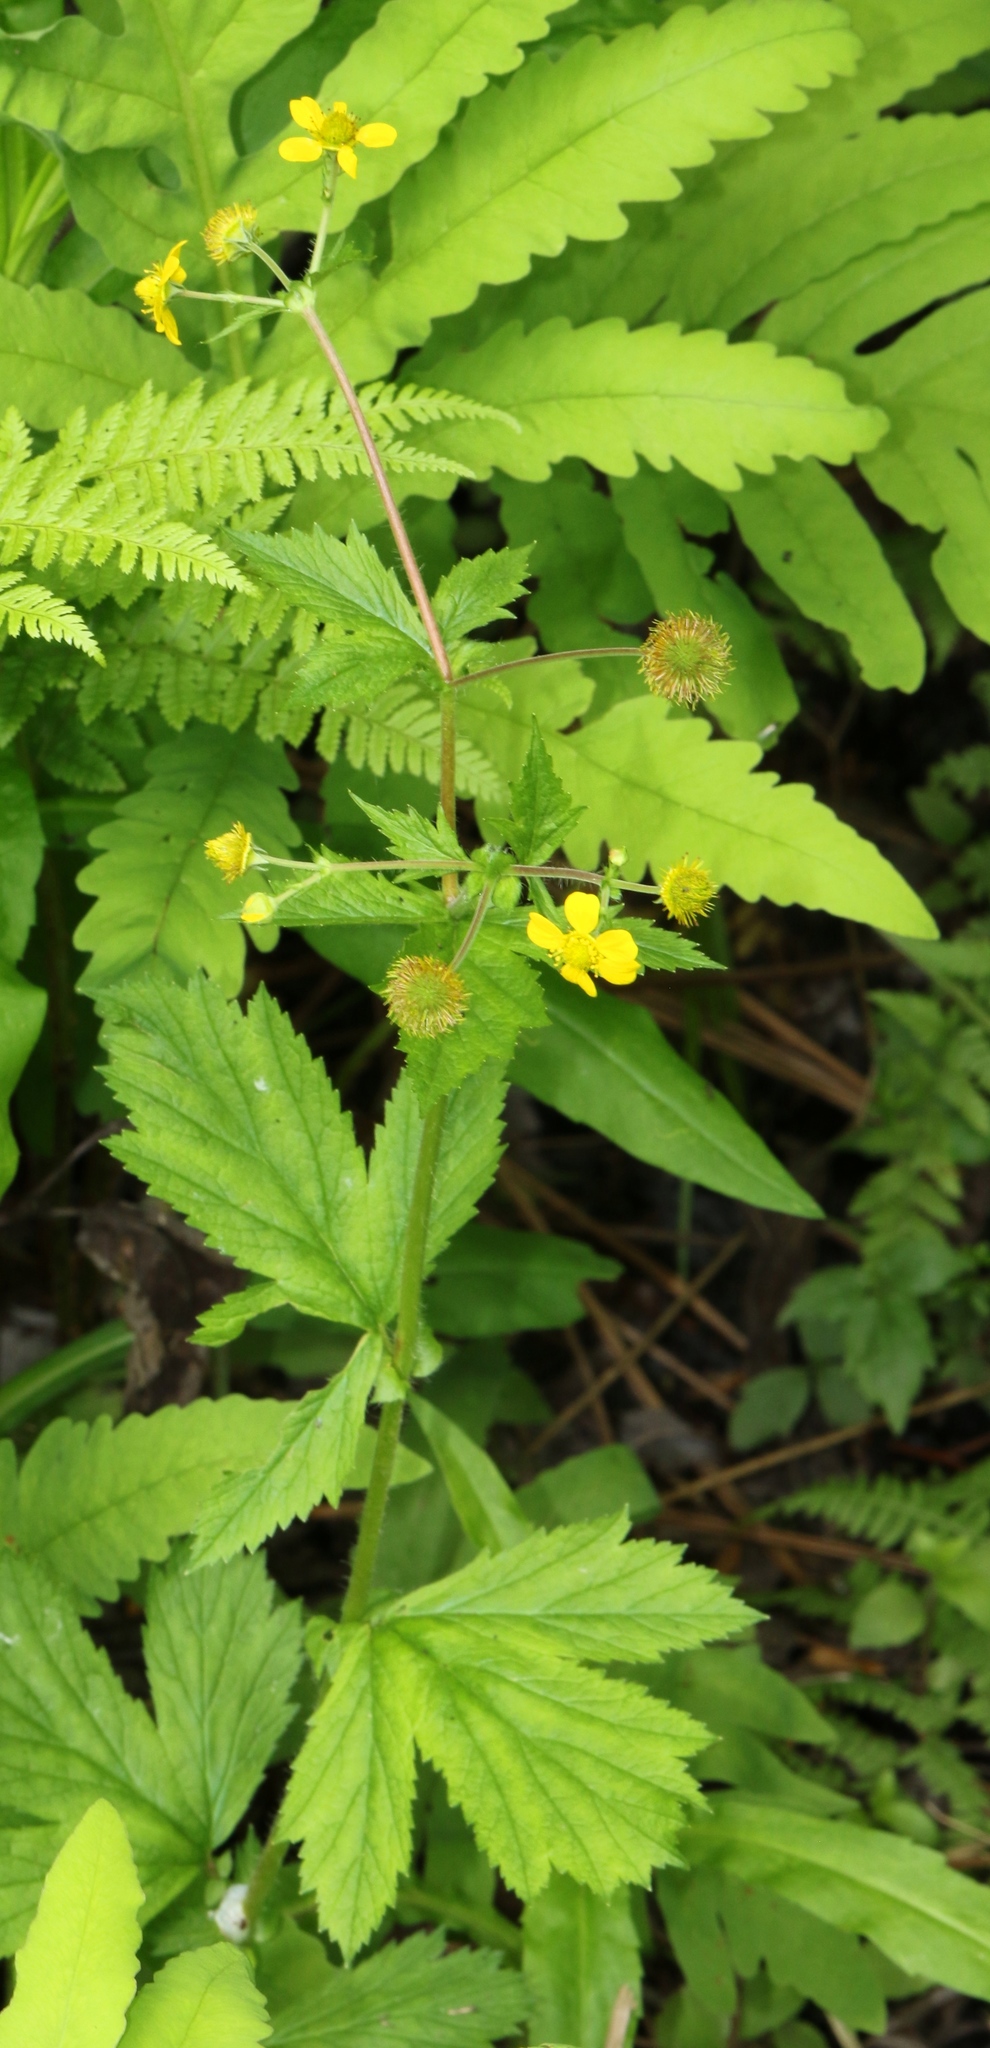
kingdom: Plantae
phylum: Tracheophyta
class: Magnoliopsida
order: Rosales
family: Rosaceae
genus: Geum
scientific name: Geum macrophyllum
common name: Large-leaved avens
